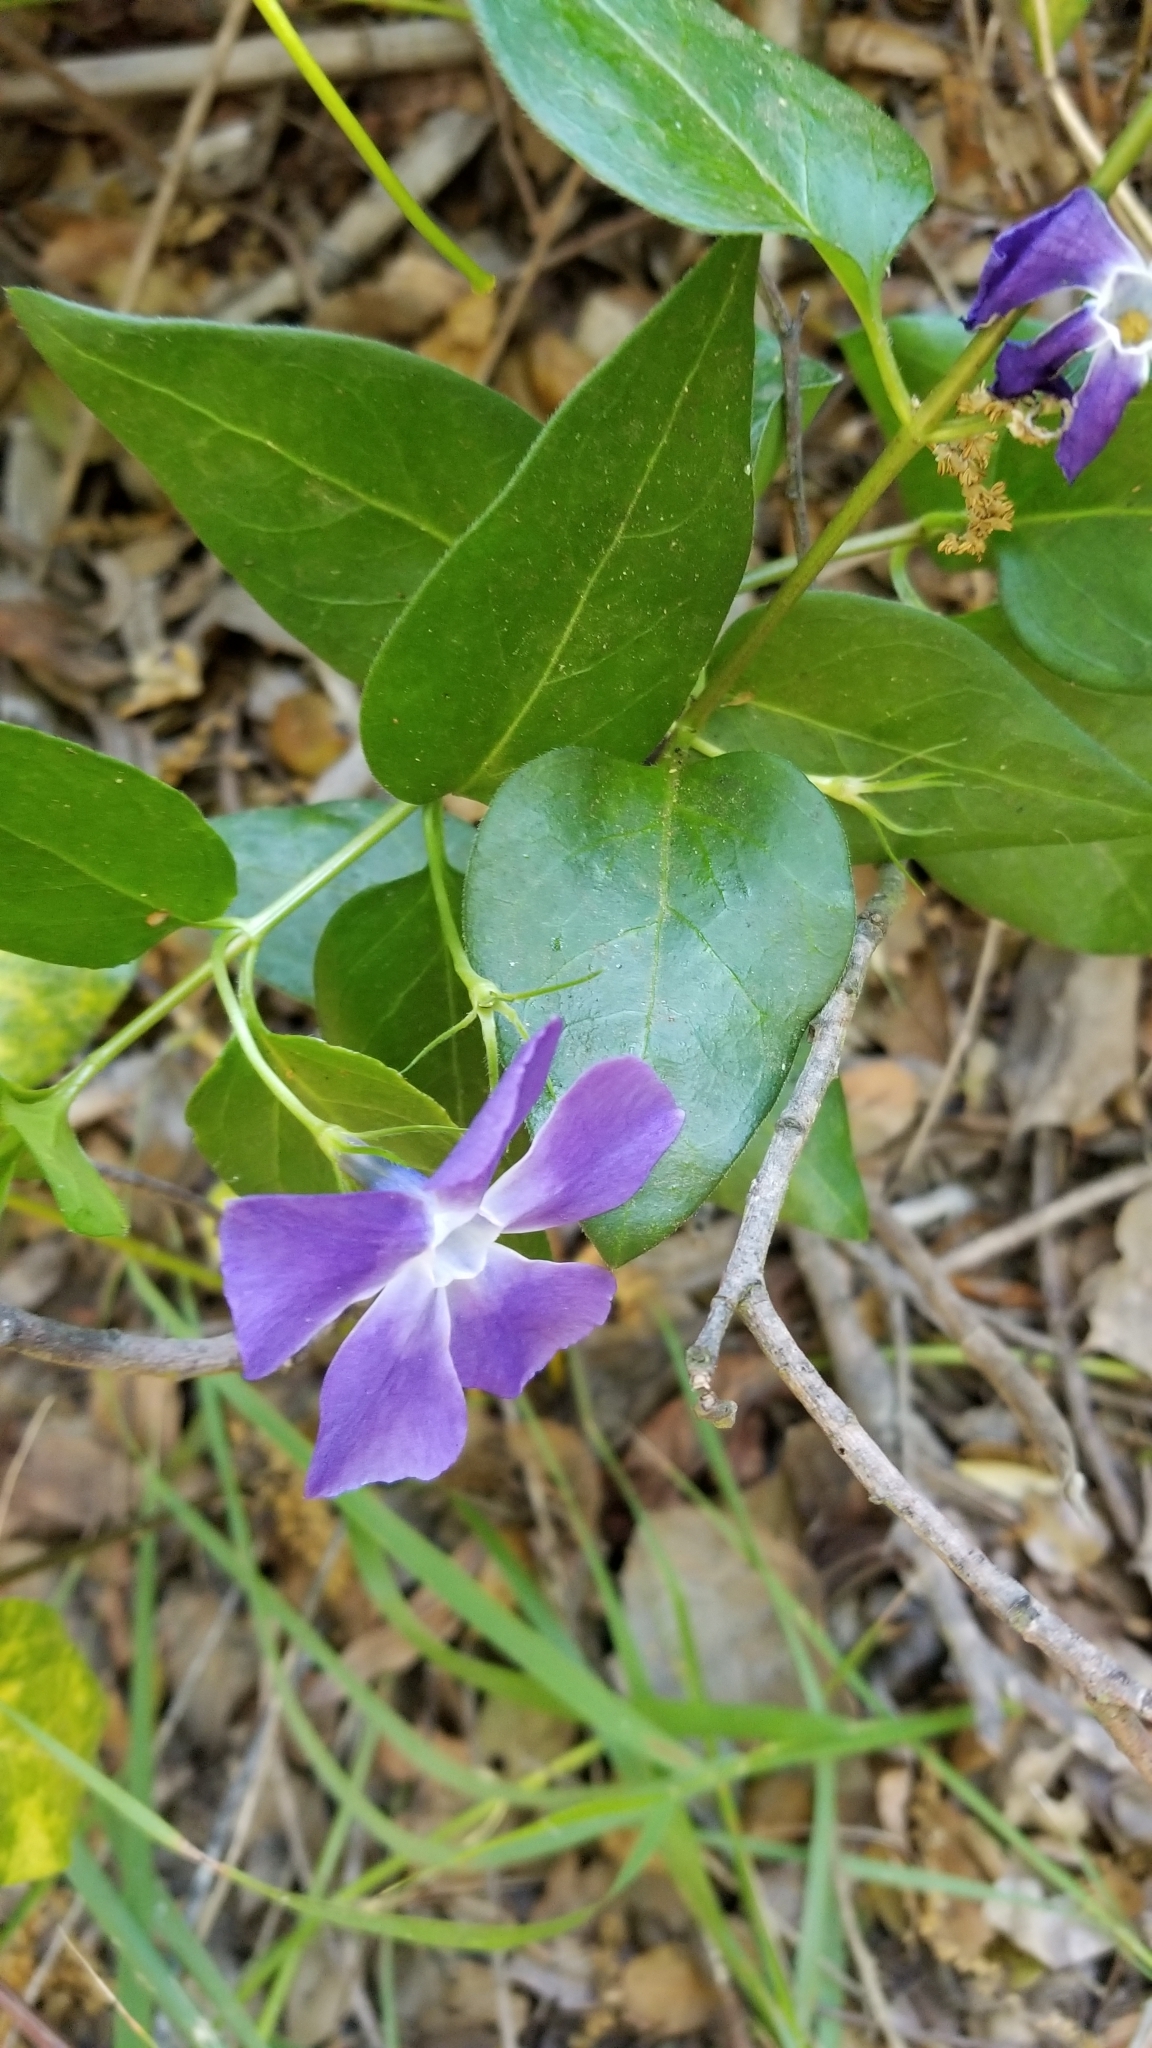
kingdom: Plantae
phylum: Tracheophyta
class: Magnoliopsida
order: Gentianales
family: Apocynaceae
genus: Vinca
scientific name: Vinca major
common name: Greater periwinkle
